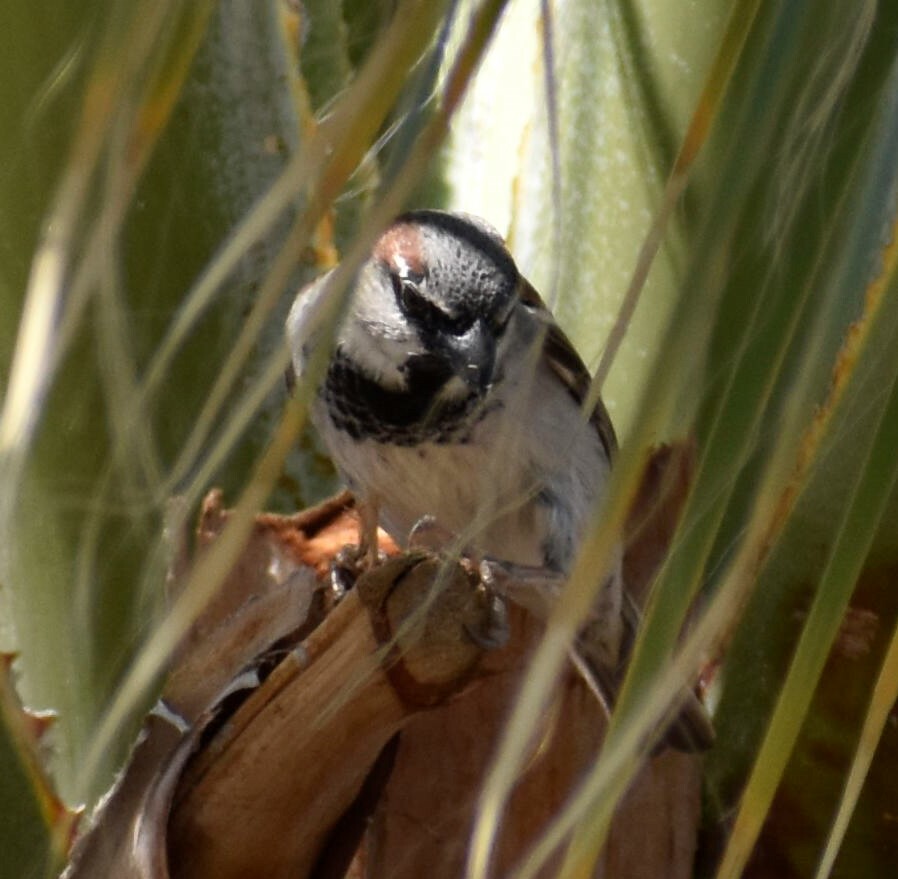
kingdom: Animalia
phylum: Chordata
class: Aves
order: Passeriformes
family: Passeridae
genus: Passer
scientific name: Passer domesticus
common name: House sparrow
